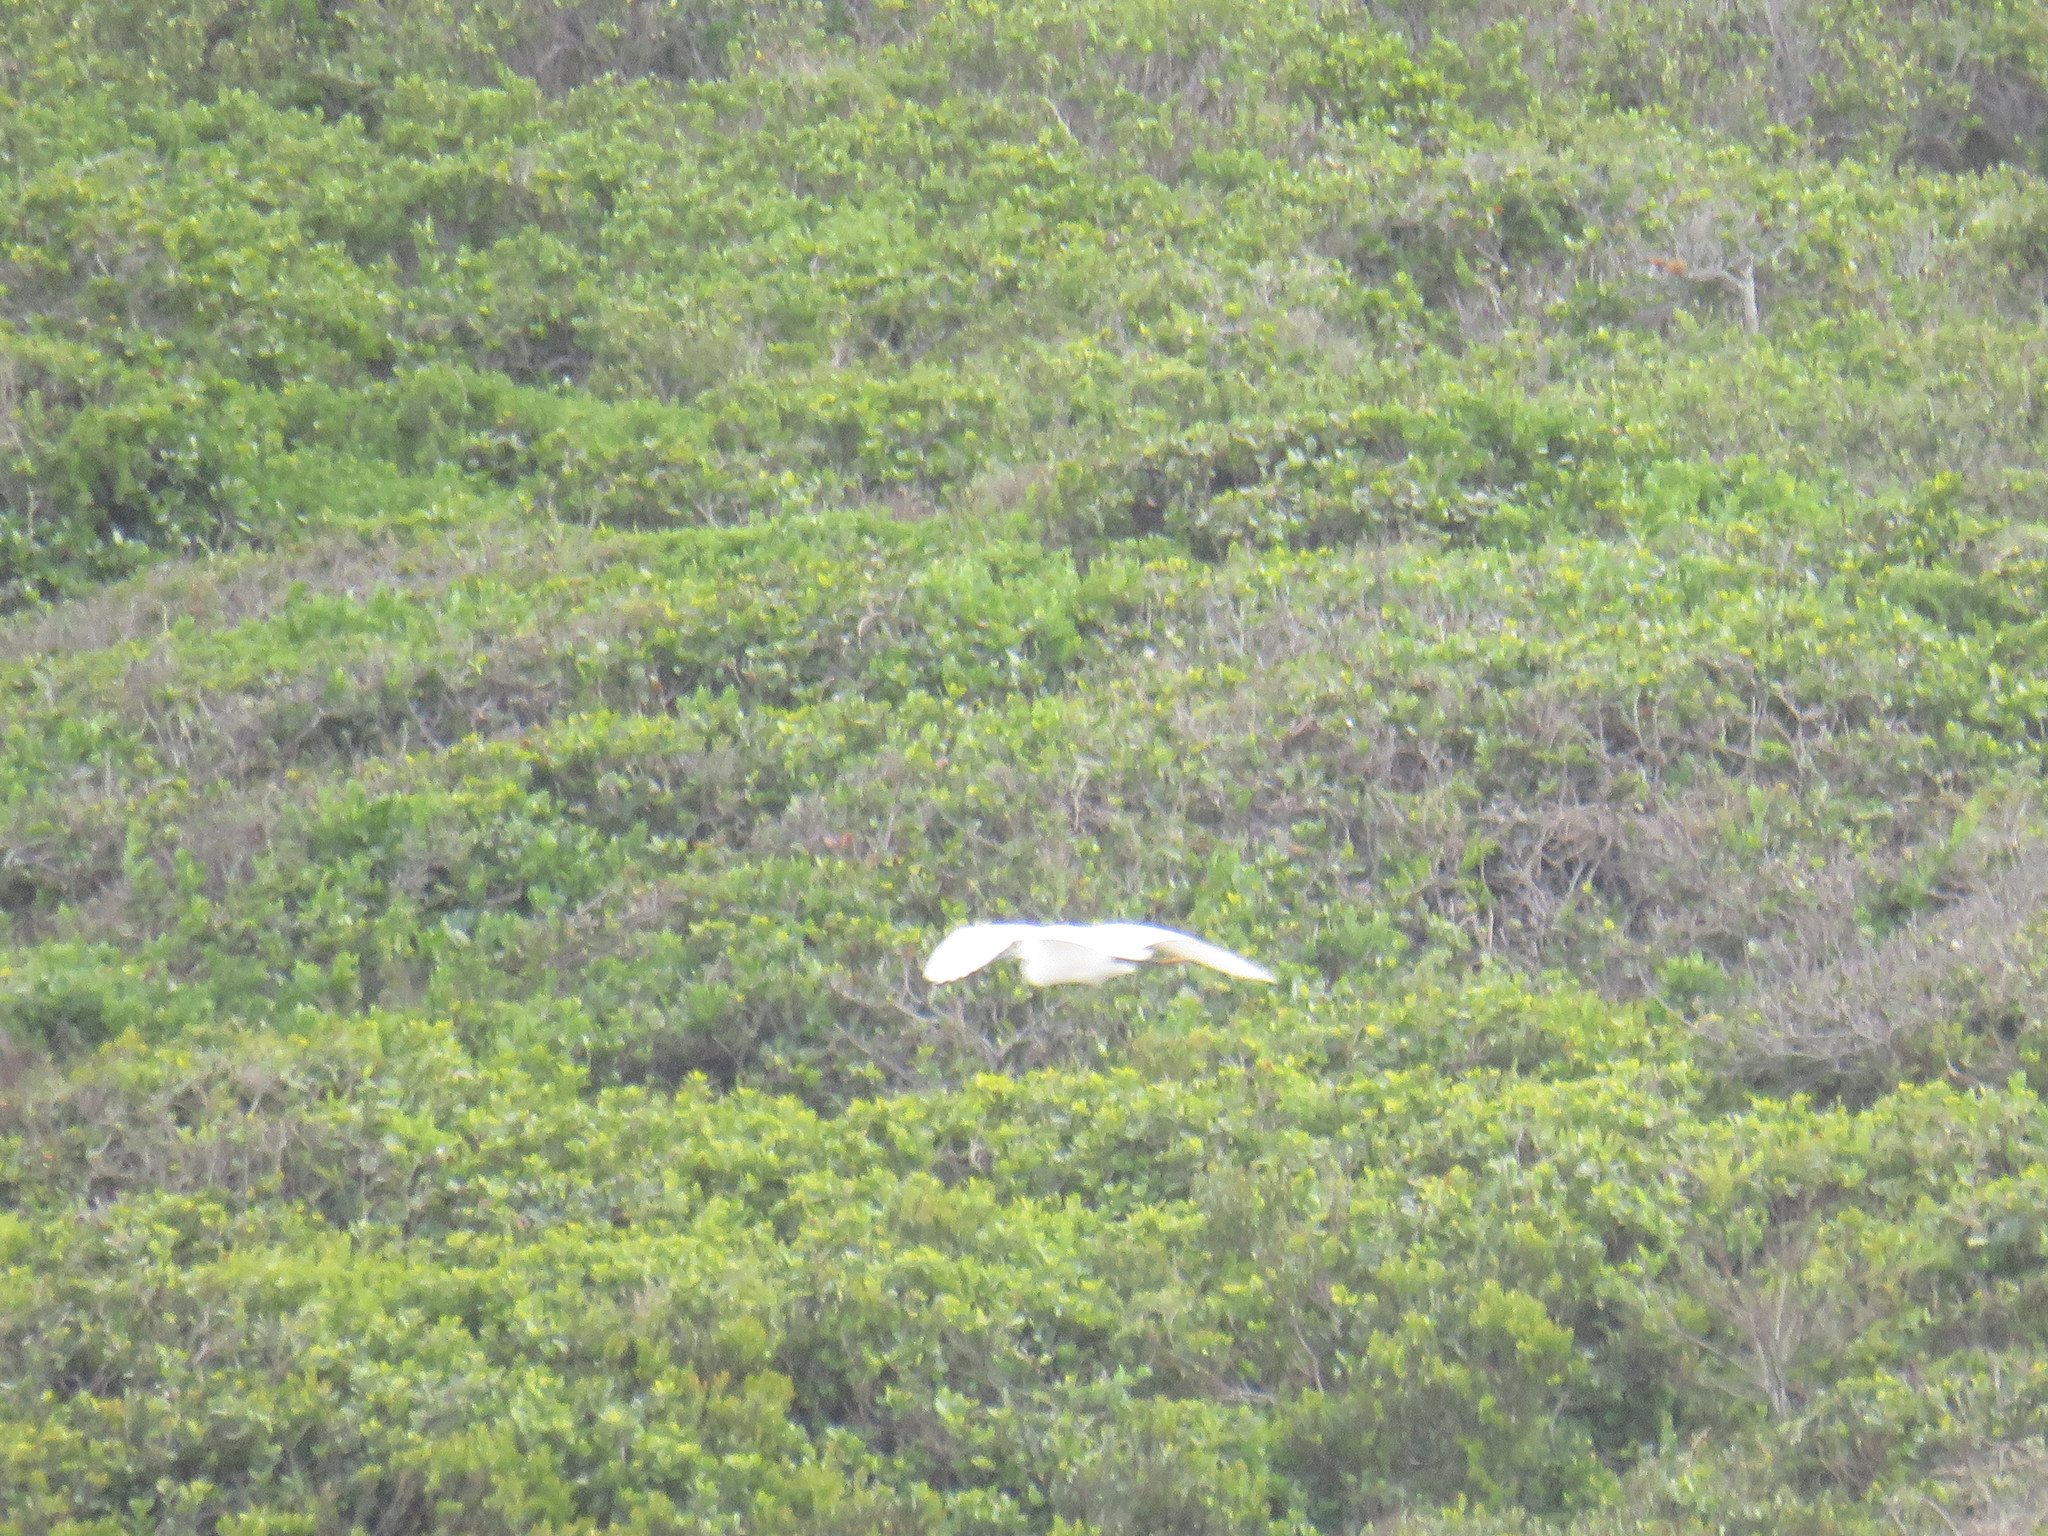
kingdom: Animalia
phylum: Chordata
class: Aves
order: Pelecaniformes
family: Ardeidae
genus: Egretta
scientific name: Egretta garzetta
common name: Little egret
